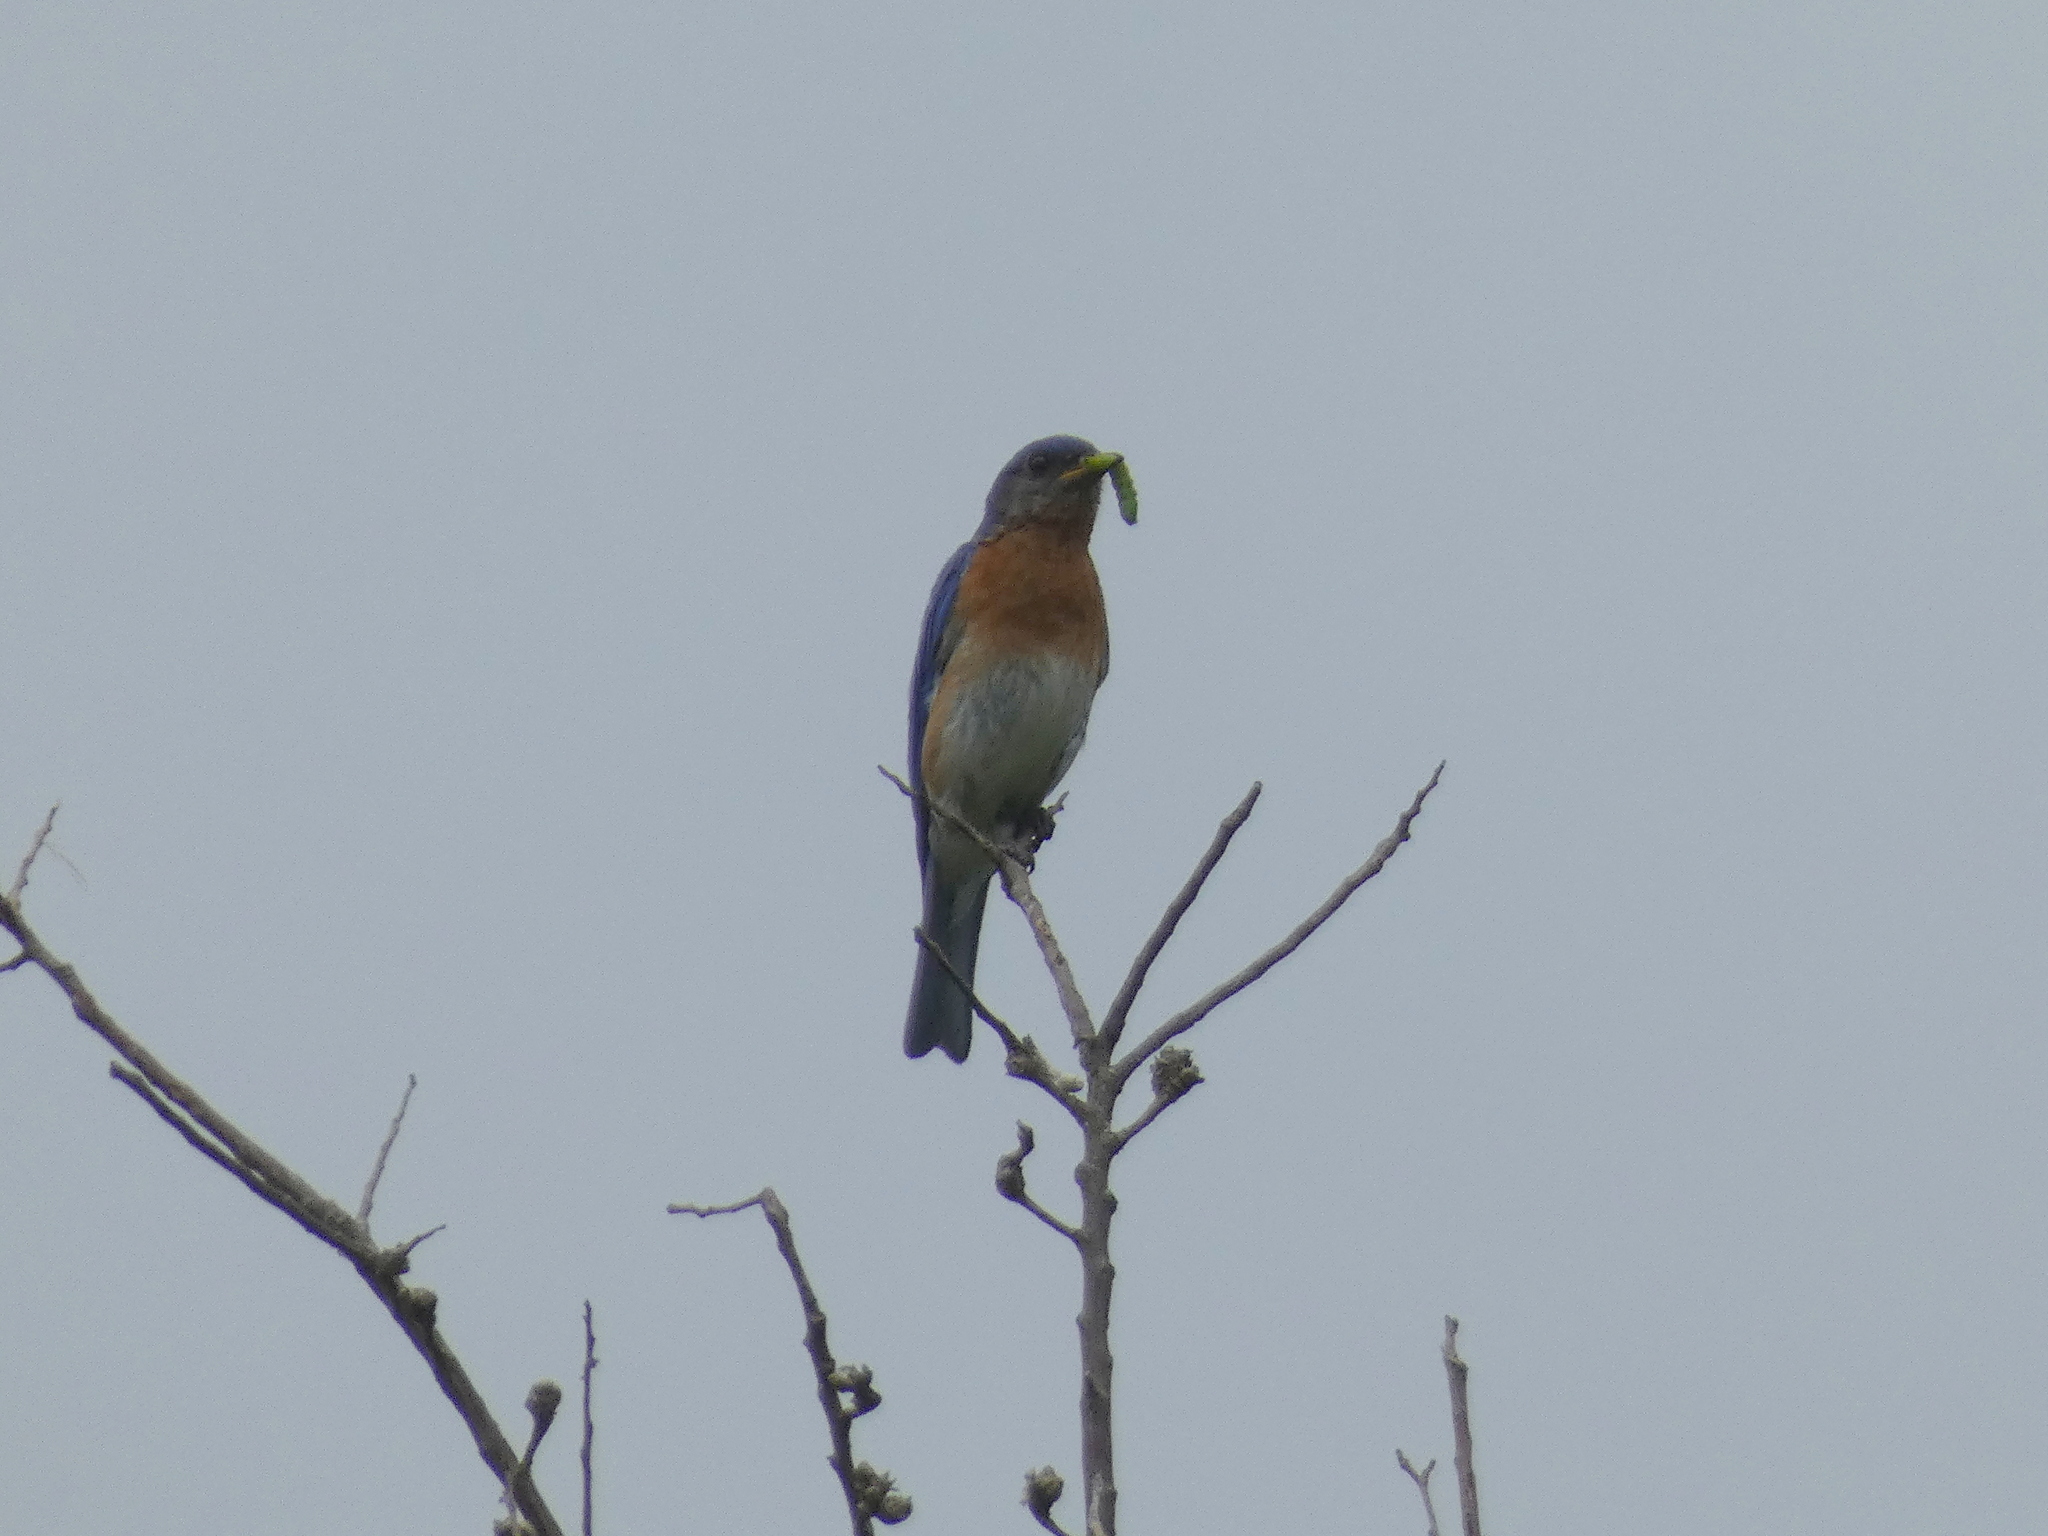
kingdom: Animalia
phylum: Chordata
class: Aves
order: Passeriformes
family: Turdidae
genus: Sialia
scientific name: Sialia sialis
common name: Eastern bluebird
